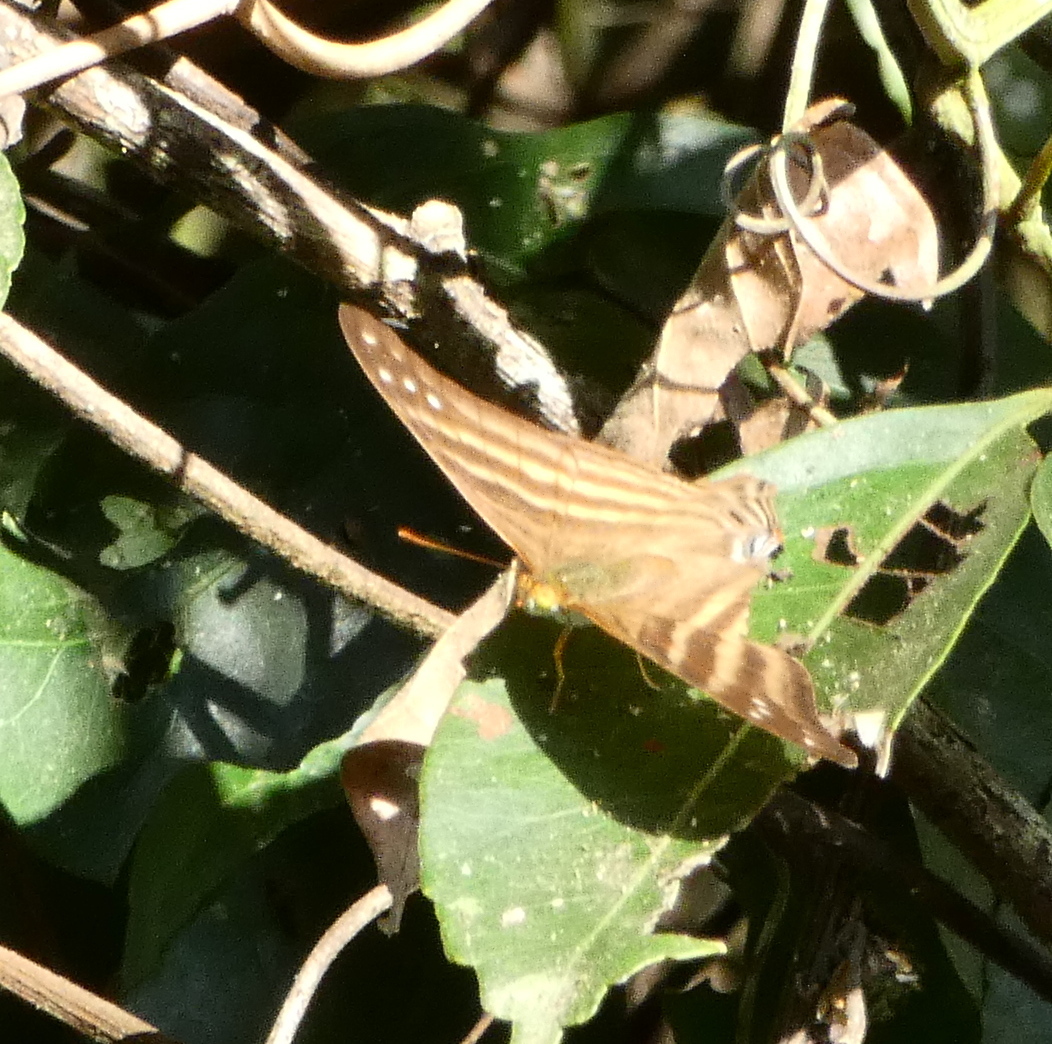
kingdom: Animalia
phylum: Arthropoda
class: Insecta
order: Lepidoptera
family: Nymphalidae
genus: Marpesia
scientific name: Marpesia chiron
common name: Many-banded daggerwing
